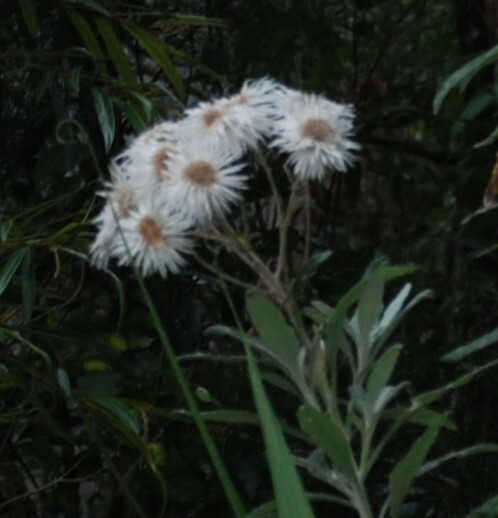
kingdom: Plantae
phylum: Tracheophyta
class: Magnoliopsida
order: Asterales
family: Asteraceae
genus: Leucozoma
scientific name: Leucozoma elatum
